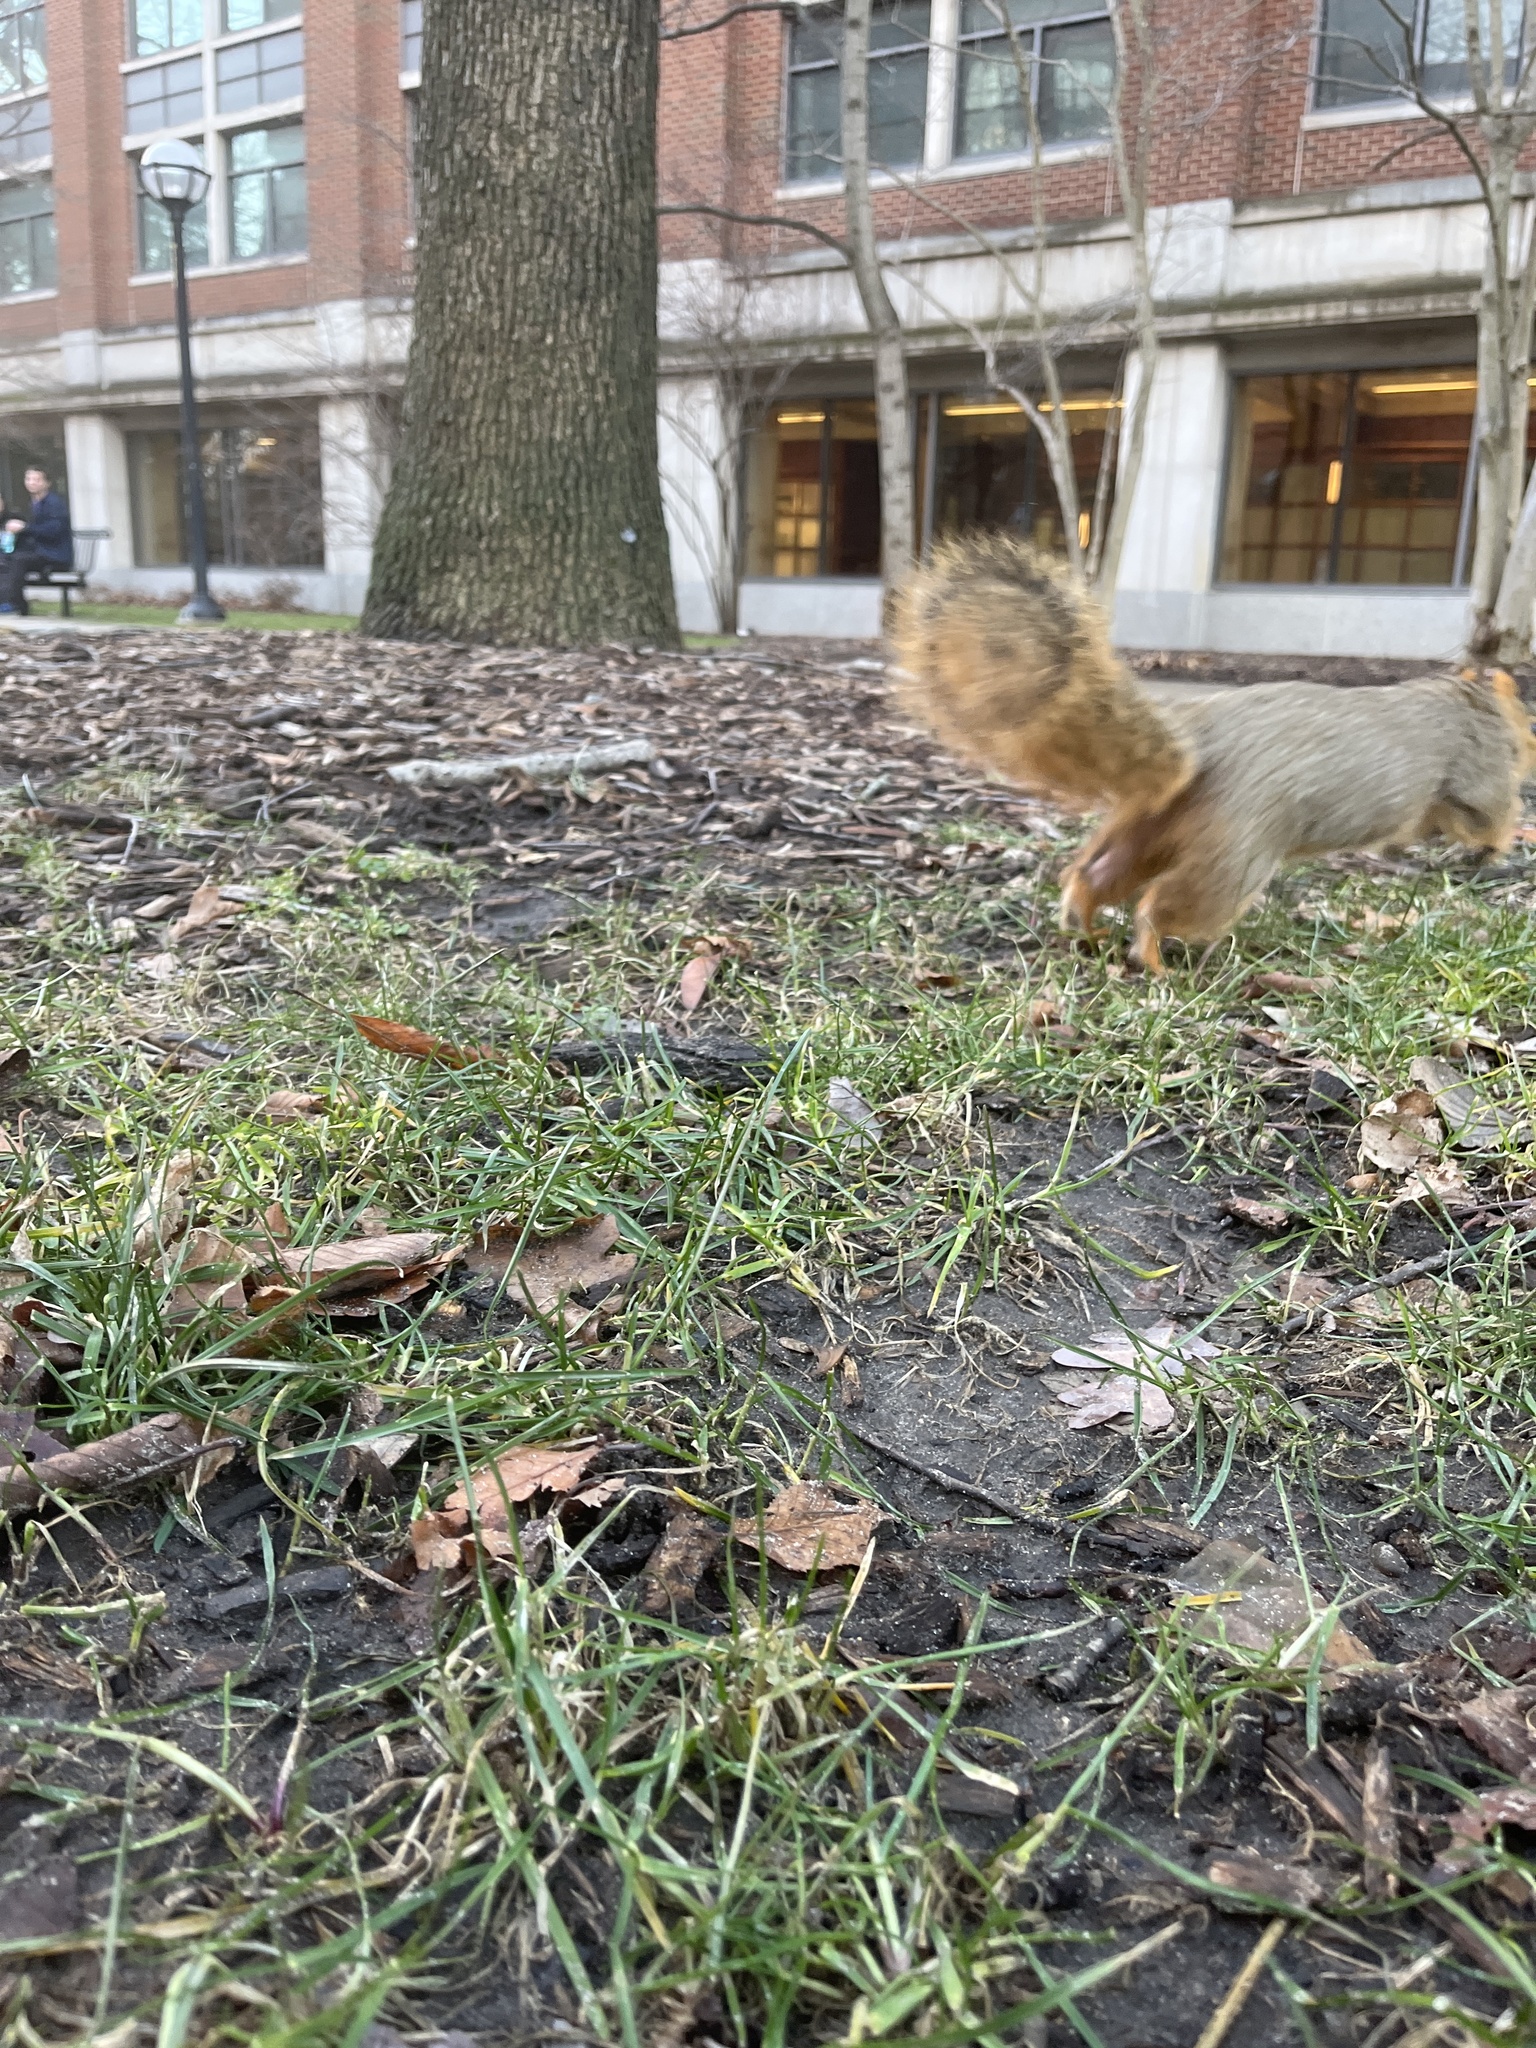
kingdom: Animalia
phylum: Chordata
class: Mammalia
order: Rodentia
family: Sciuridae
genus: Sciurus
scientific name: Sciurus niger
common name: Fox squirrel
